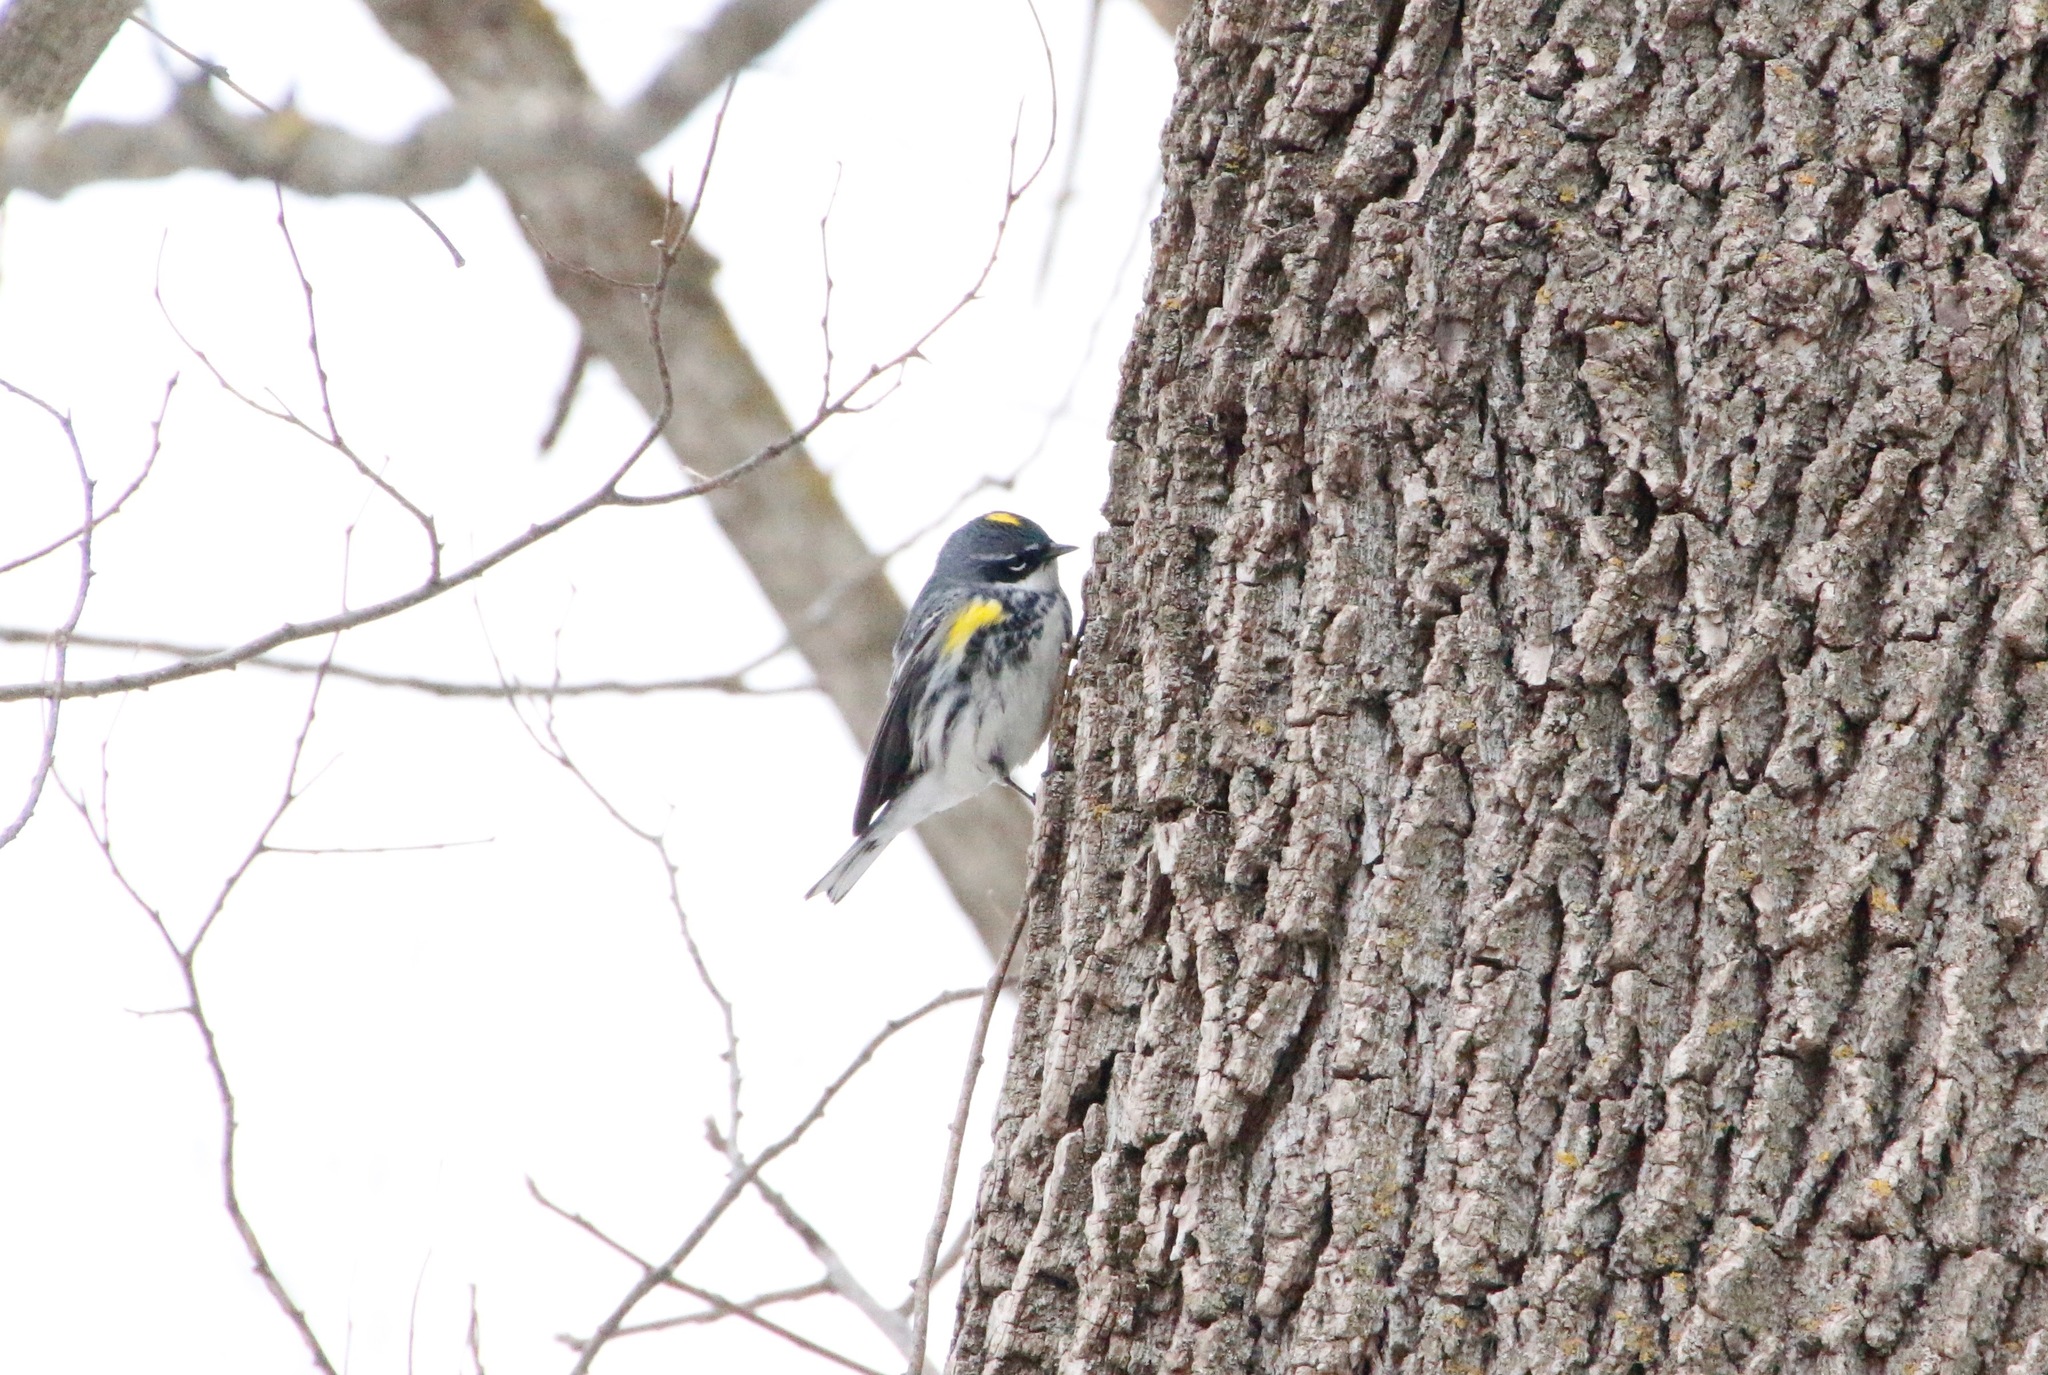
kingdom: Animalia
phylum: Chordata
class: Aves
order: Passeriformes
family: Parulidae
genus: Setophaga
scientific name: Setophaga coronata
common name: Myrtle warbler
